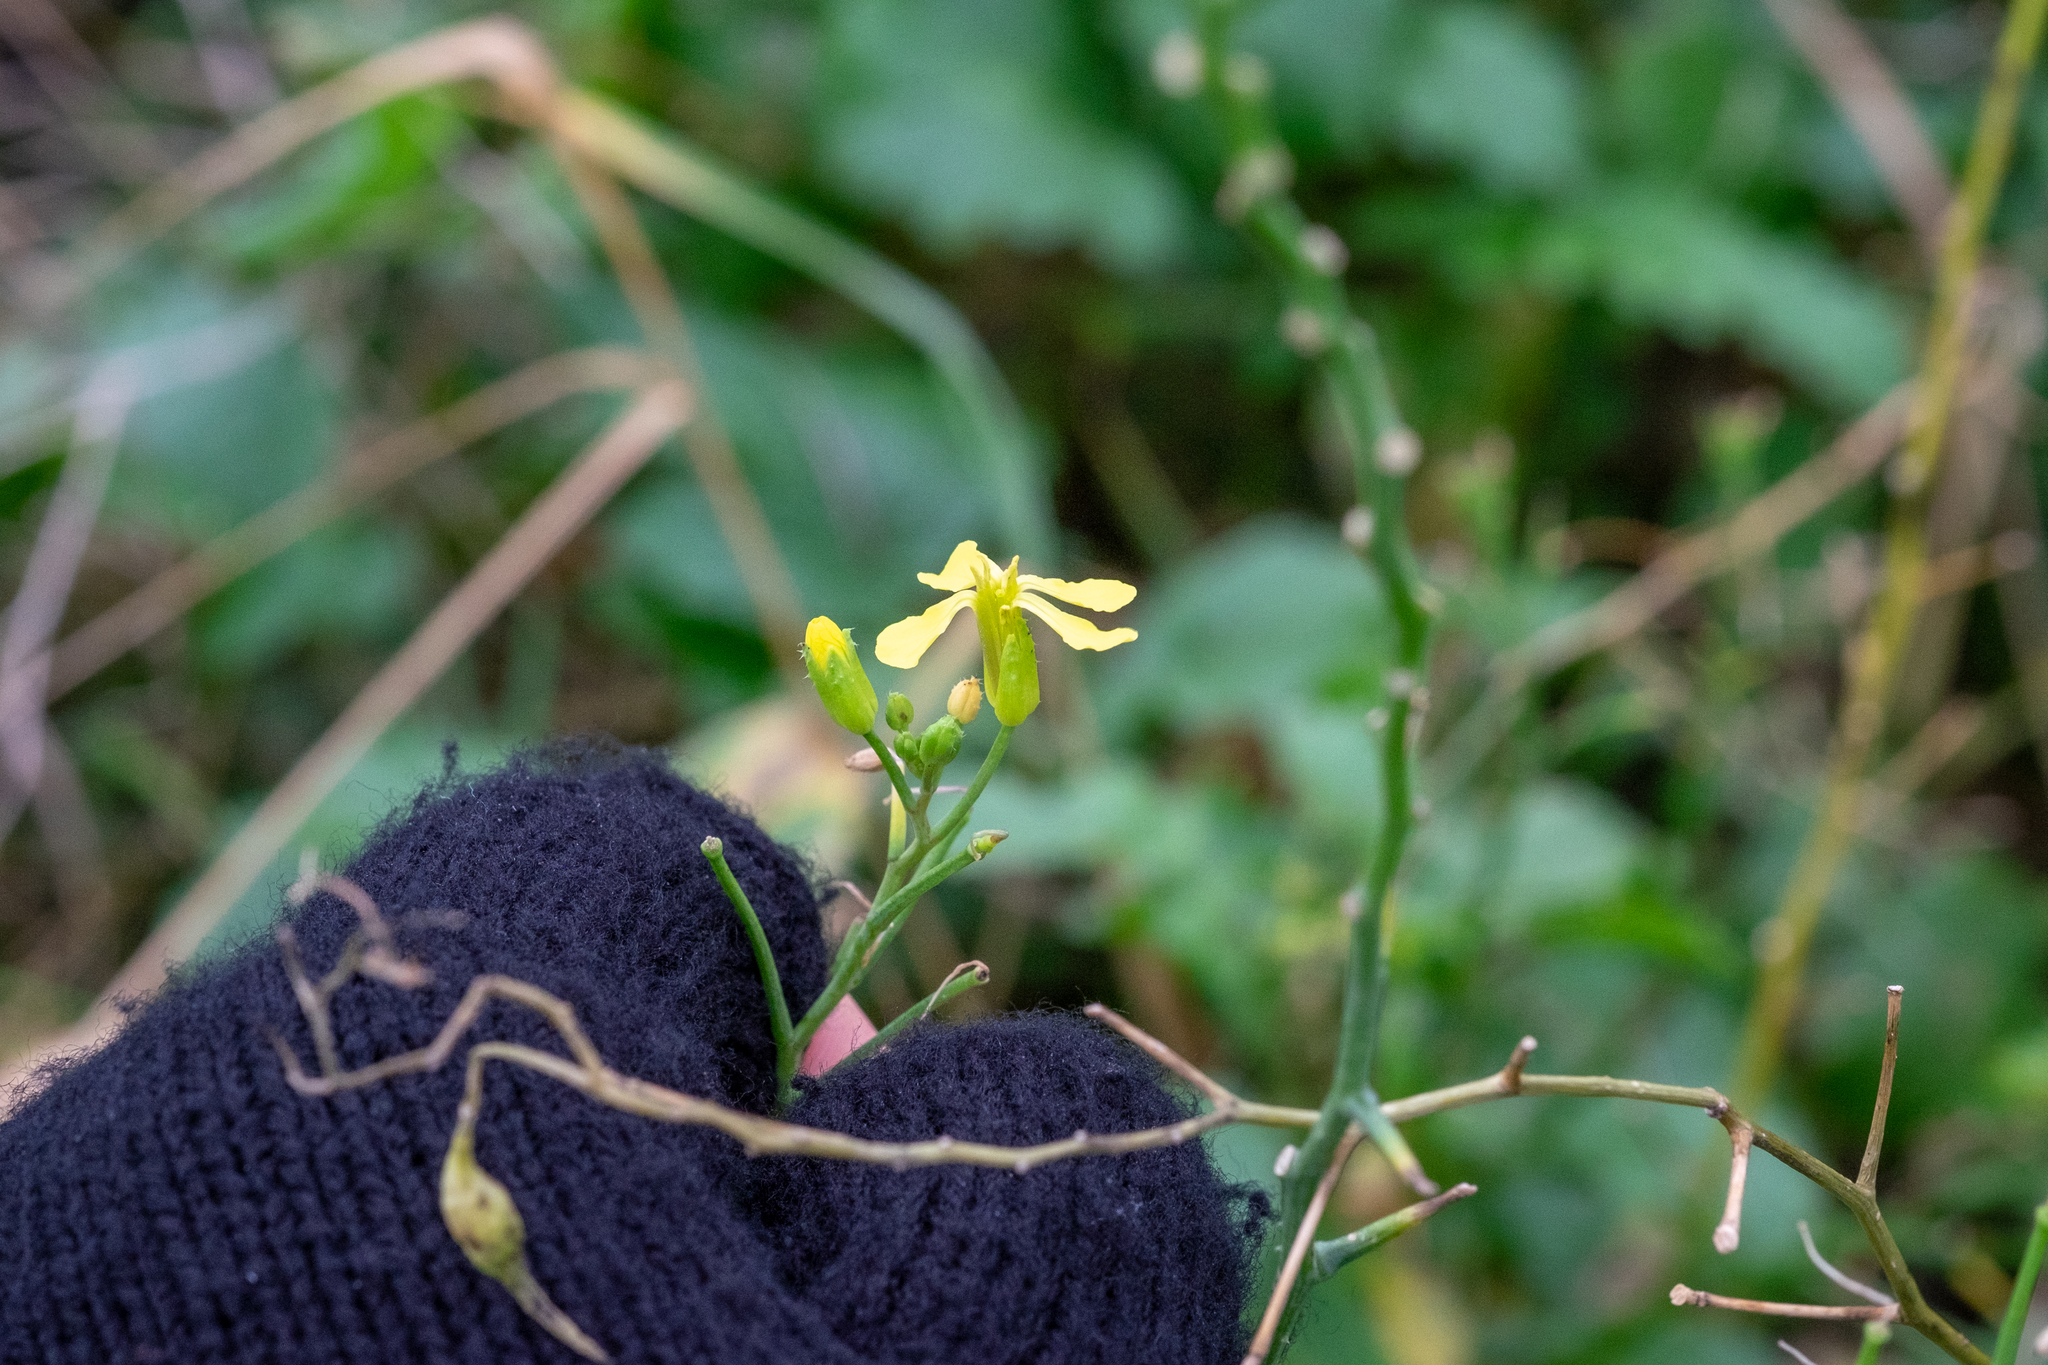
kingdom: Plantae
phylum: Tracheophyta
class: Magnoliopsida
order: Brassicales
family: Brassicaceae
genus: Raphanus
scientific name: Raphanus raphanistrum
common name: Wild radish
